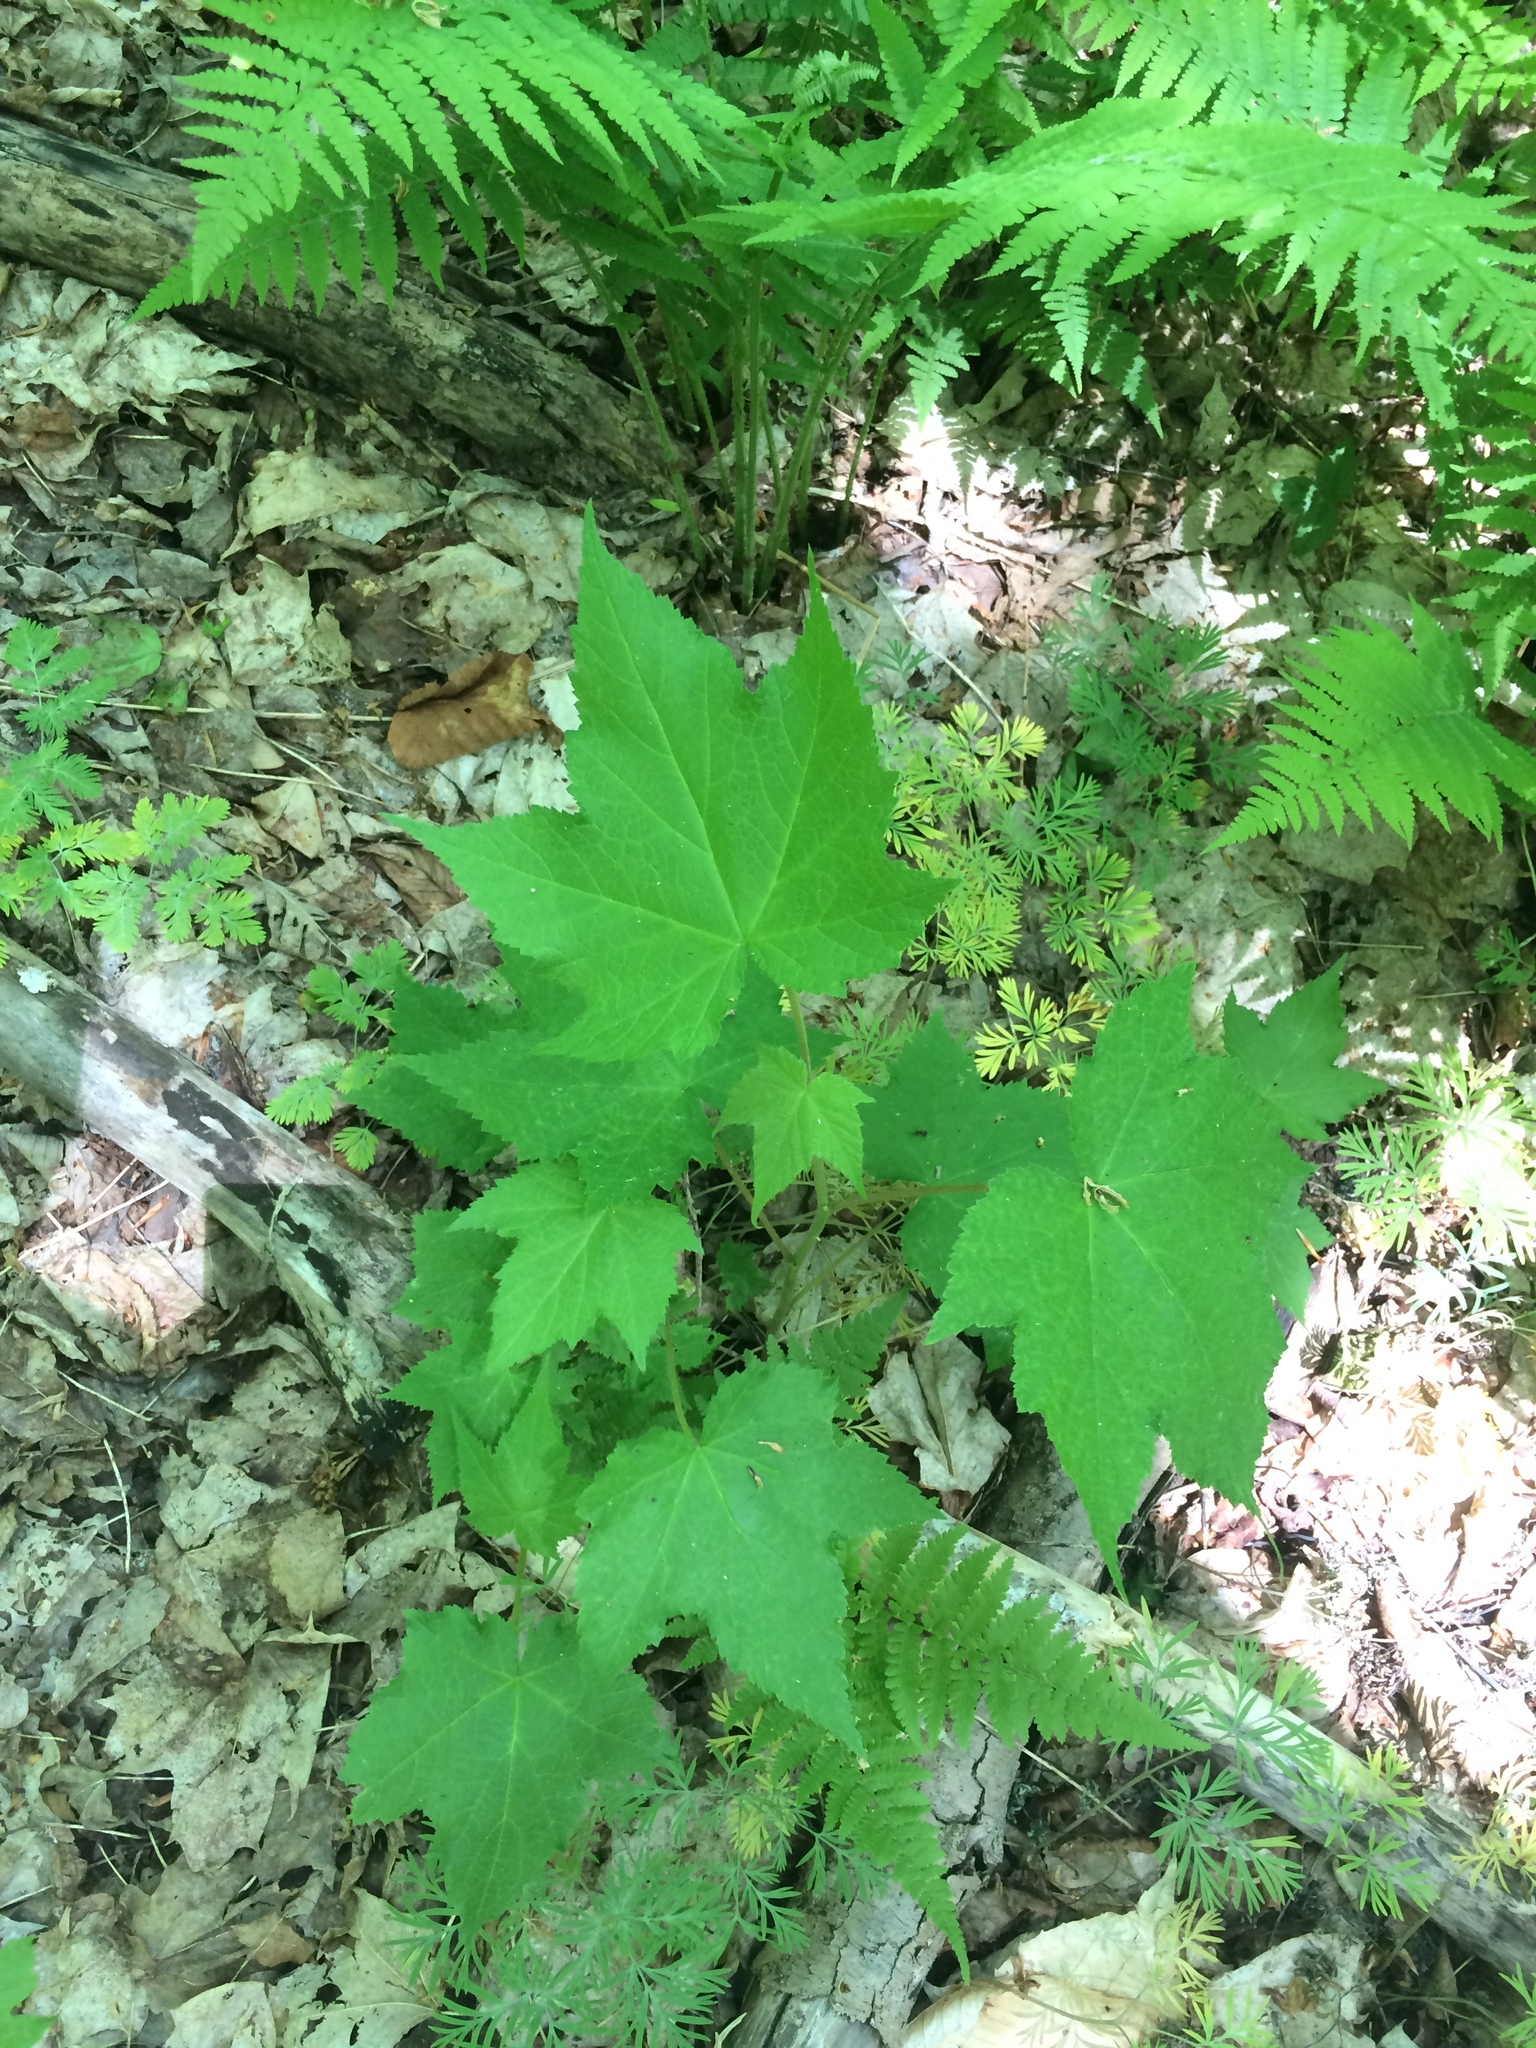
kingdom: Plantae
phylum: Tracheophyta
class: Magnoliopsida
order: Rosales
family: Rosaceae
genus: Rubus
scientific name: Rubus odoratus
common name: Purple-flowered raspberry
